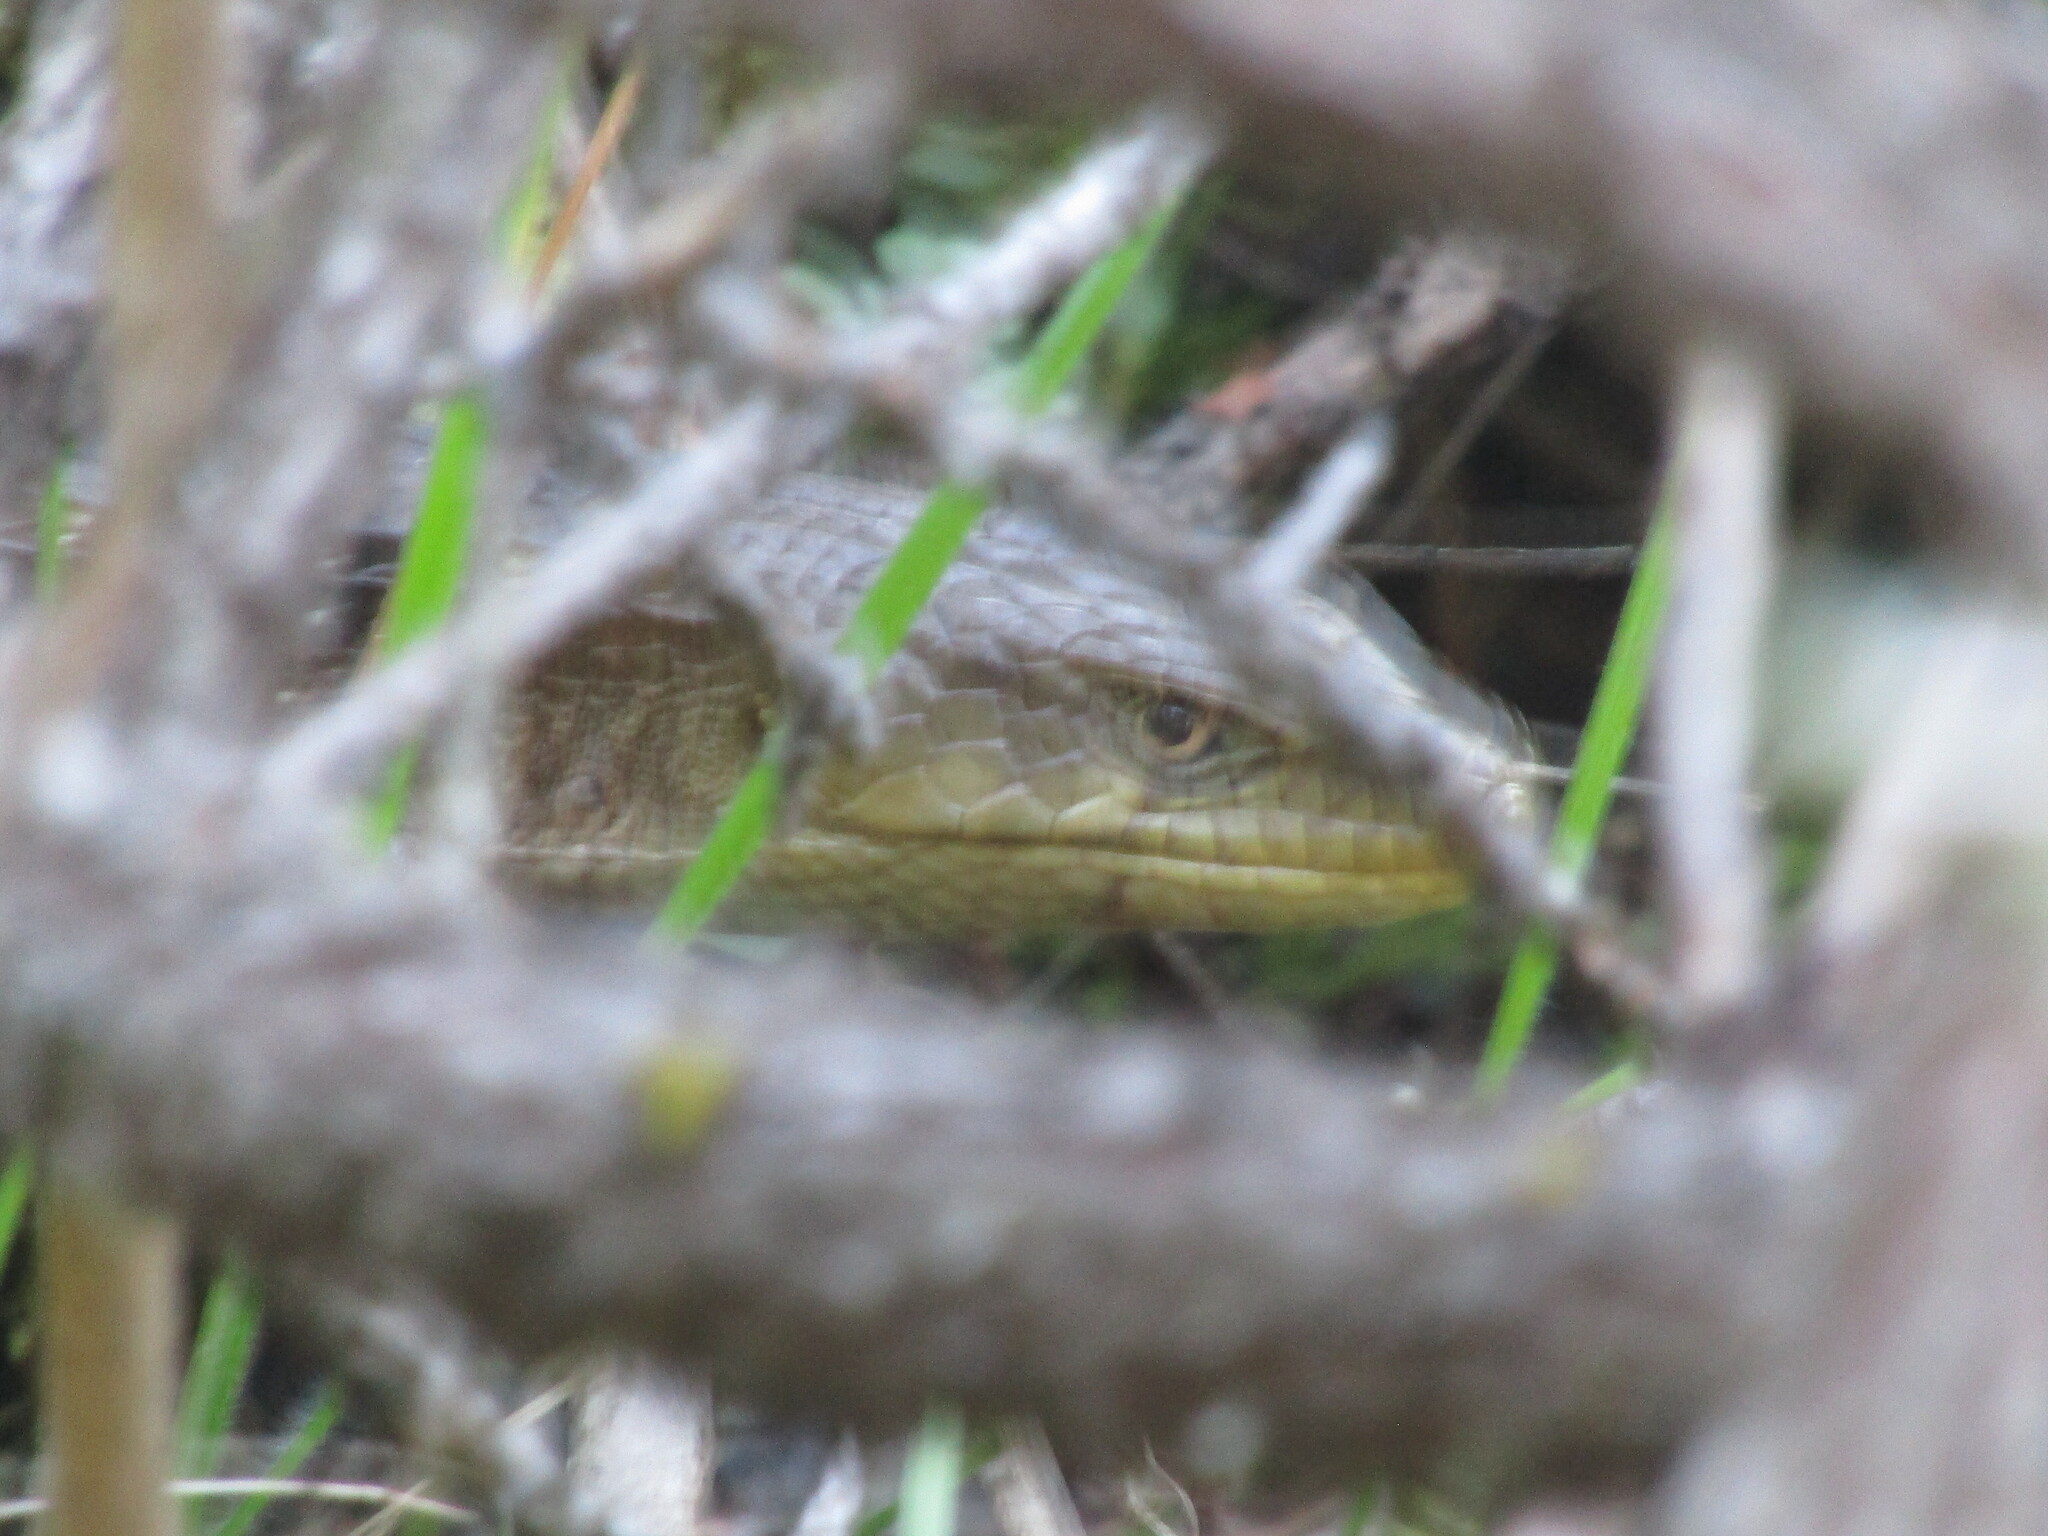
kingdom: Animalia
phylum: Chordata
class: Squamata
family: Anguidae
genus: Elgaria
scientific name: Elgaria multicarinata
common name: Southern alligator lizard
